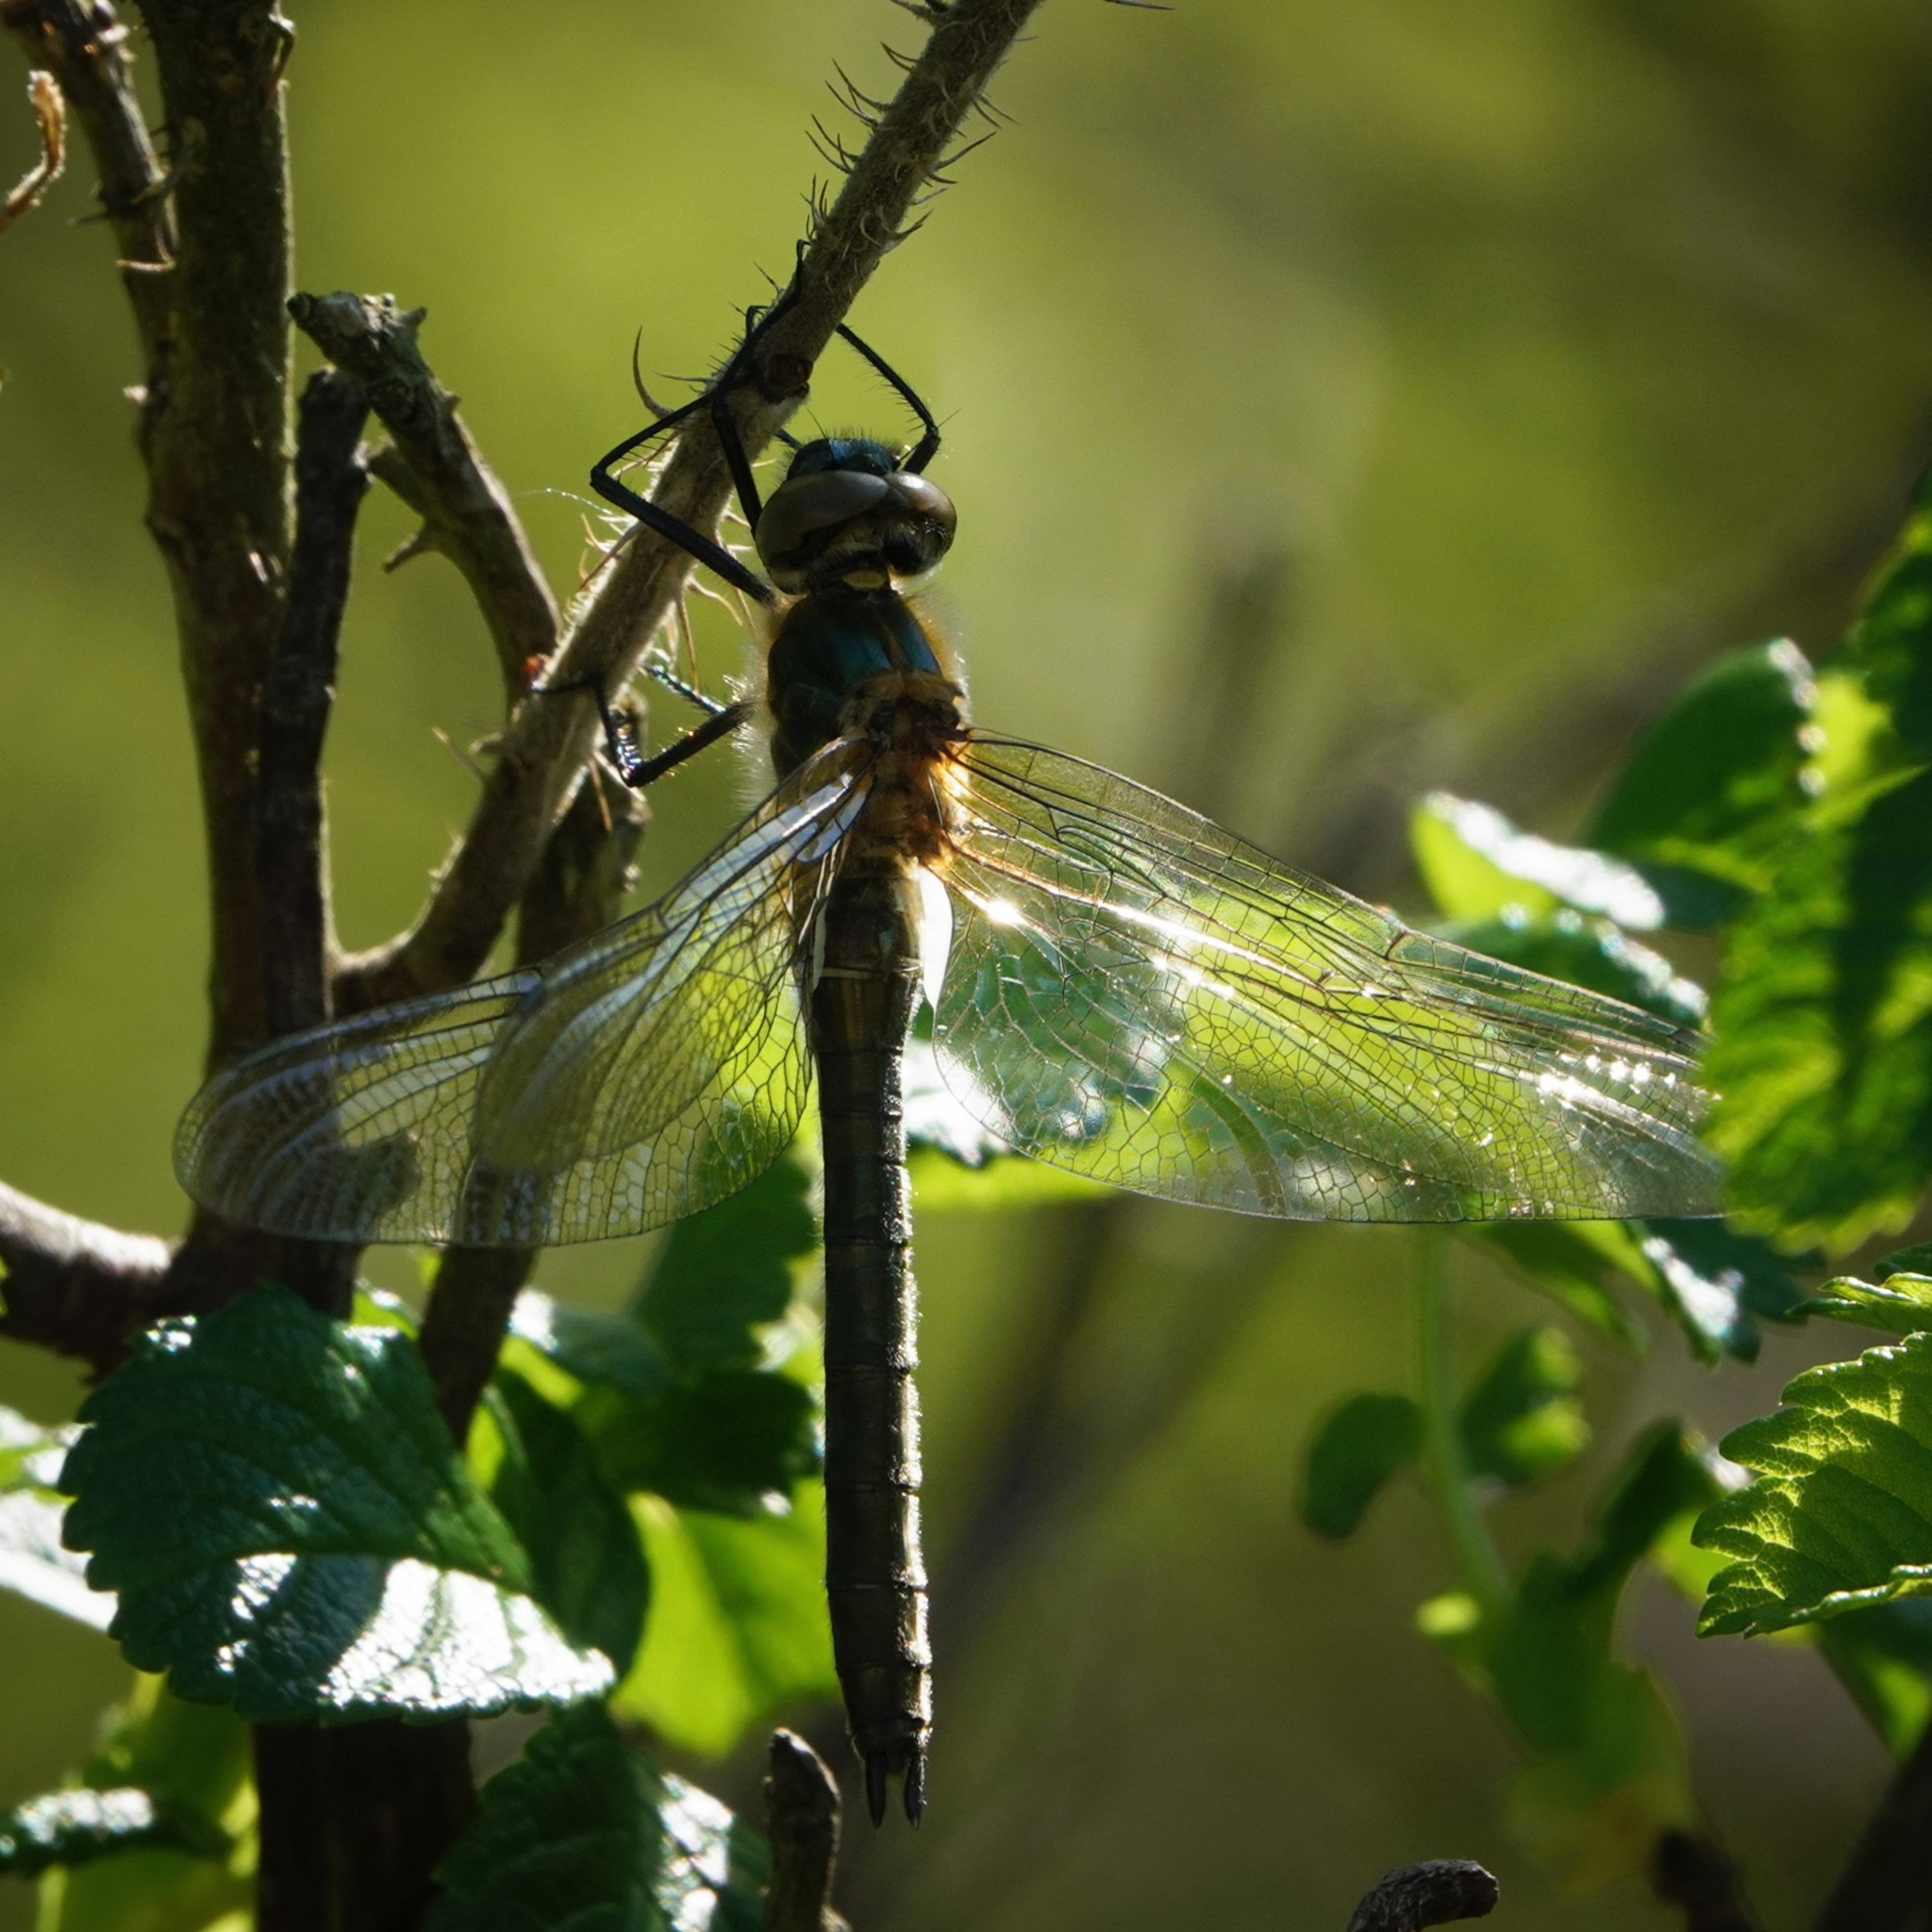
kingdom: Animalia
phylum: Arthropoda
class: Insecta
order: Odonata
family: Corduliidae
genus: Cordulia
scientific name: Cordulia aenea
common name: Downy emerald
